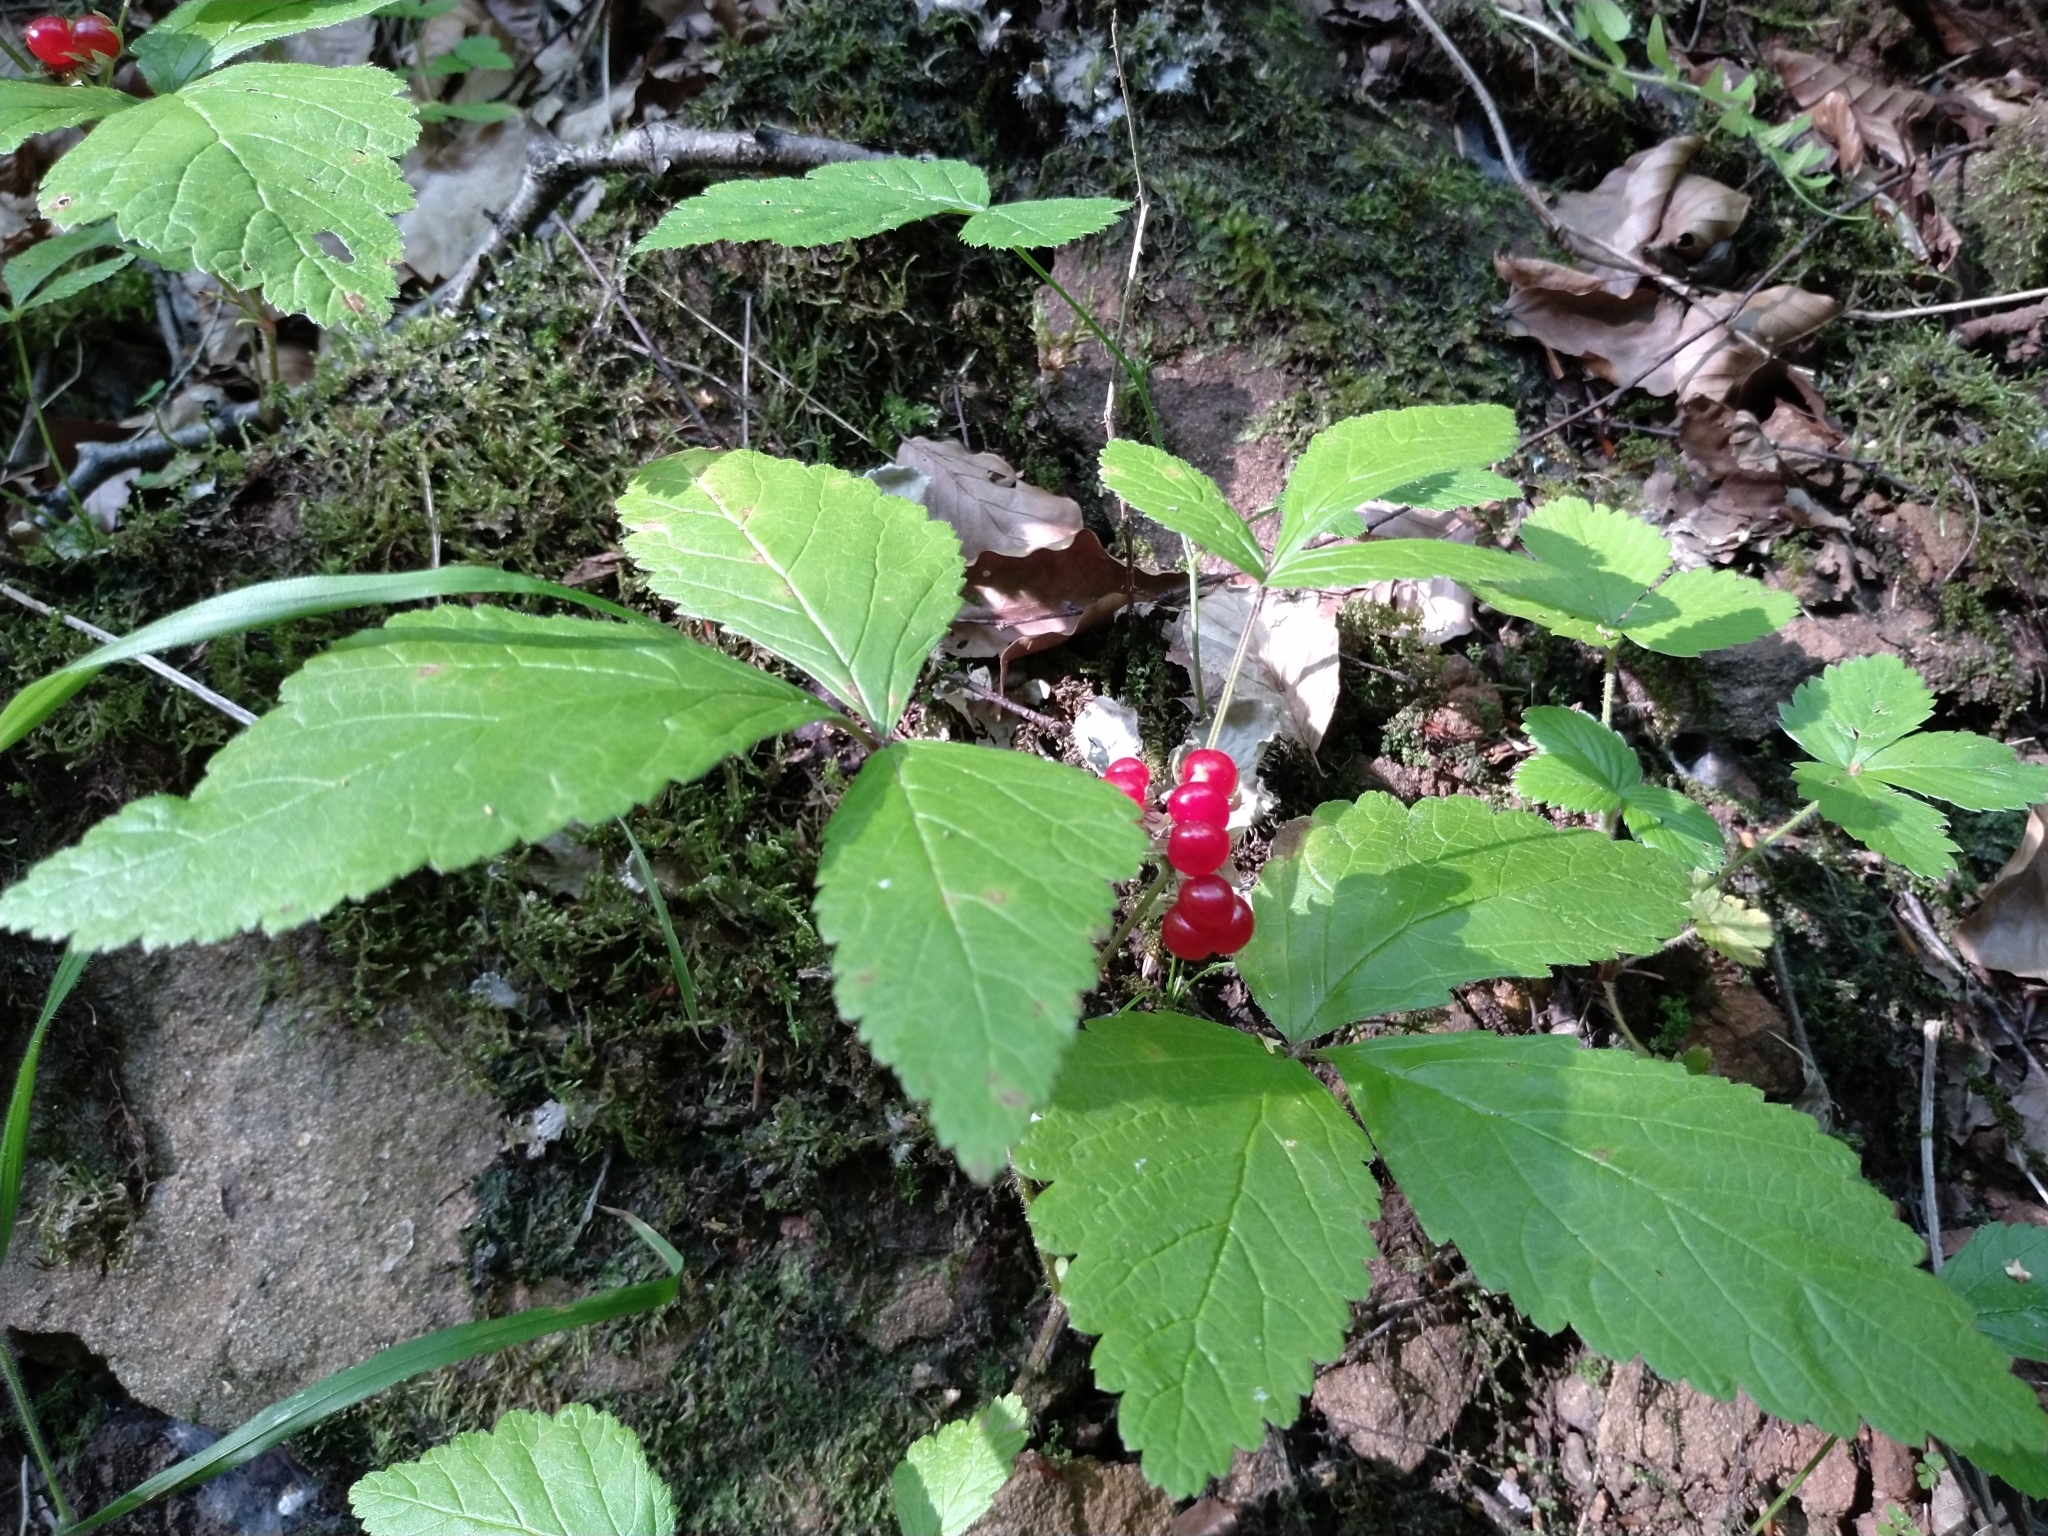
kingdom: Plantae
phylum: Tracheophyta
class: Magnoliopsida
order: Rosales
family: Rosaceae
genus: Rubus
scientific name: Rubus saxatilis
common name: Stone bramble
